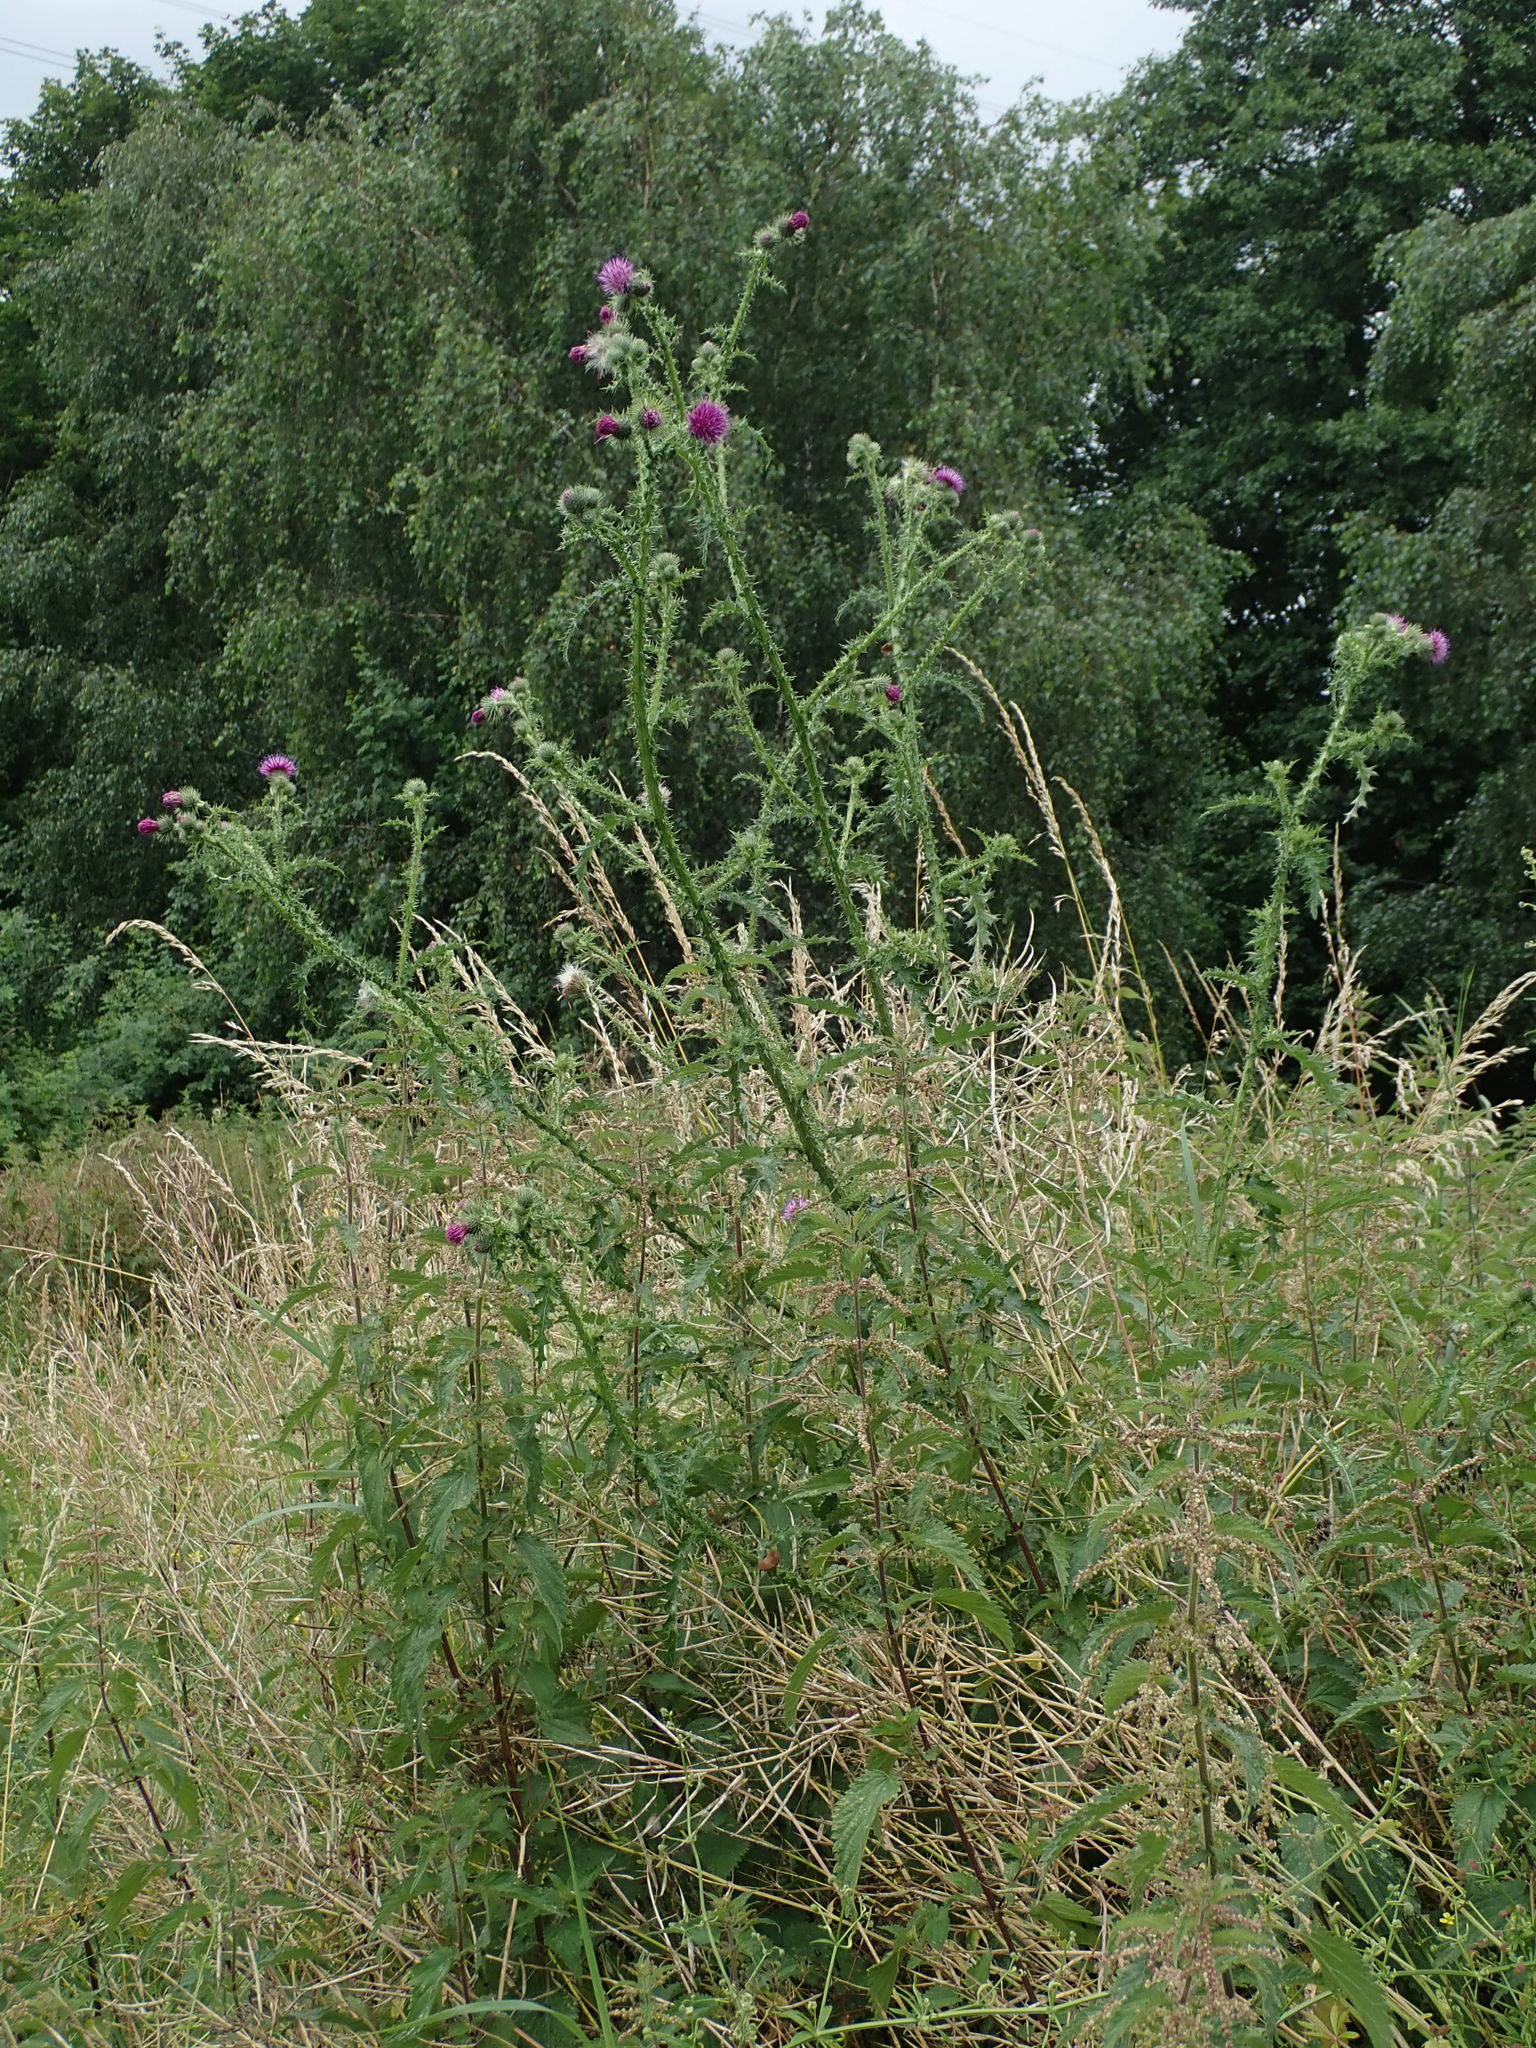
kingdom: Plantae
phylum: Tracheophyta
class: Magnoliopsida
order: Asterales
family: Asteraceae
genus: Carduus
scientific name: Carduus crispus
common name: Welted thistle
